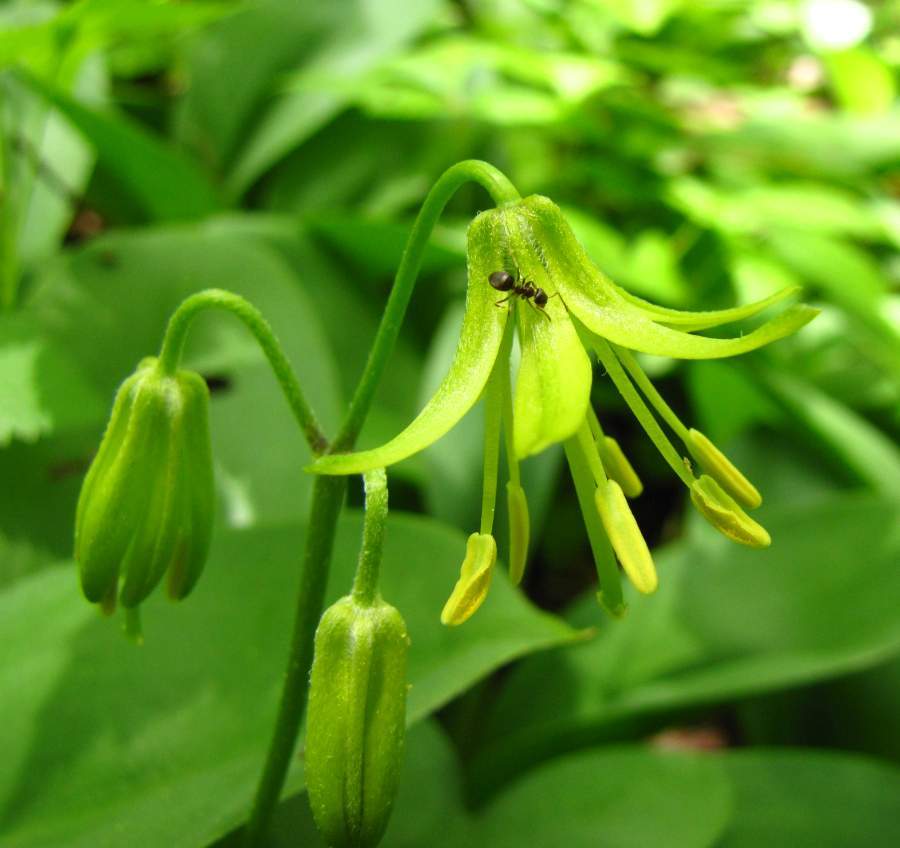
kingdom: Plantae
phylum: Tracheophyta
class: Liliopsida
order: Liliales
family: Liliaceae
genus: Clintonia
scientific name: Clintonia borealis
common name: Yellow clintonia
